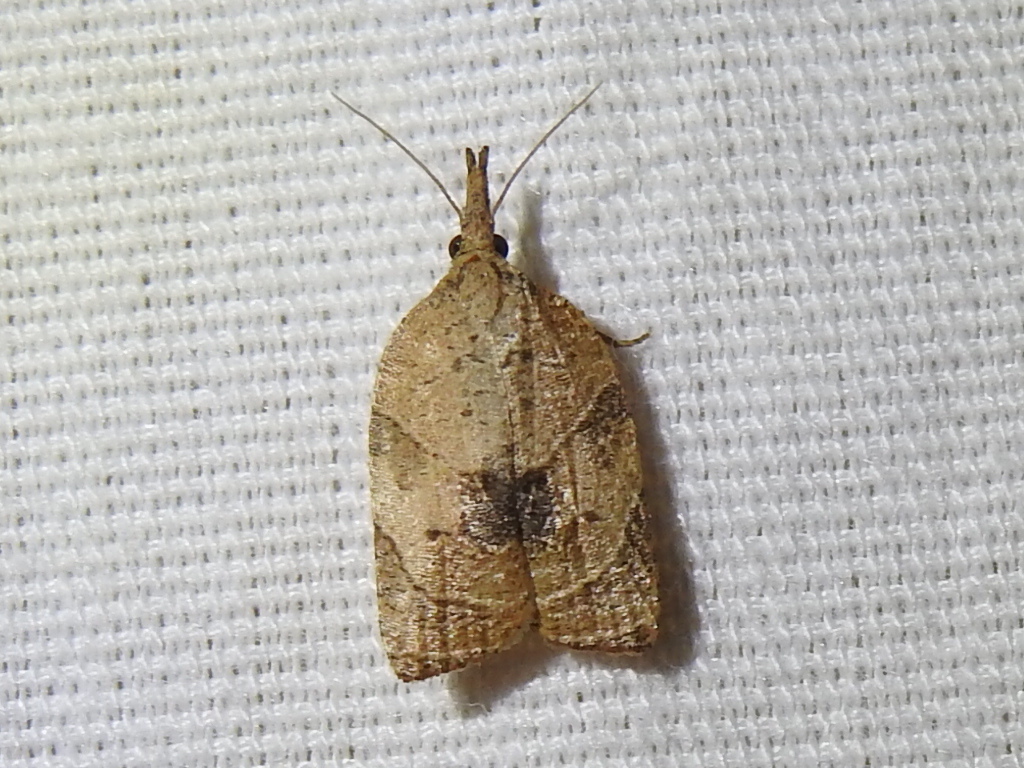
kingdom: Animalia
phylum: Arthropoda
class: Insecta
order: Lepidoptera
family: Tortricidae
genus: Platynota
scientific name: Platynota rostrana
